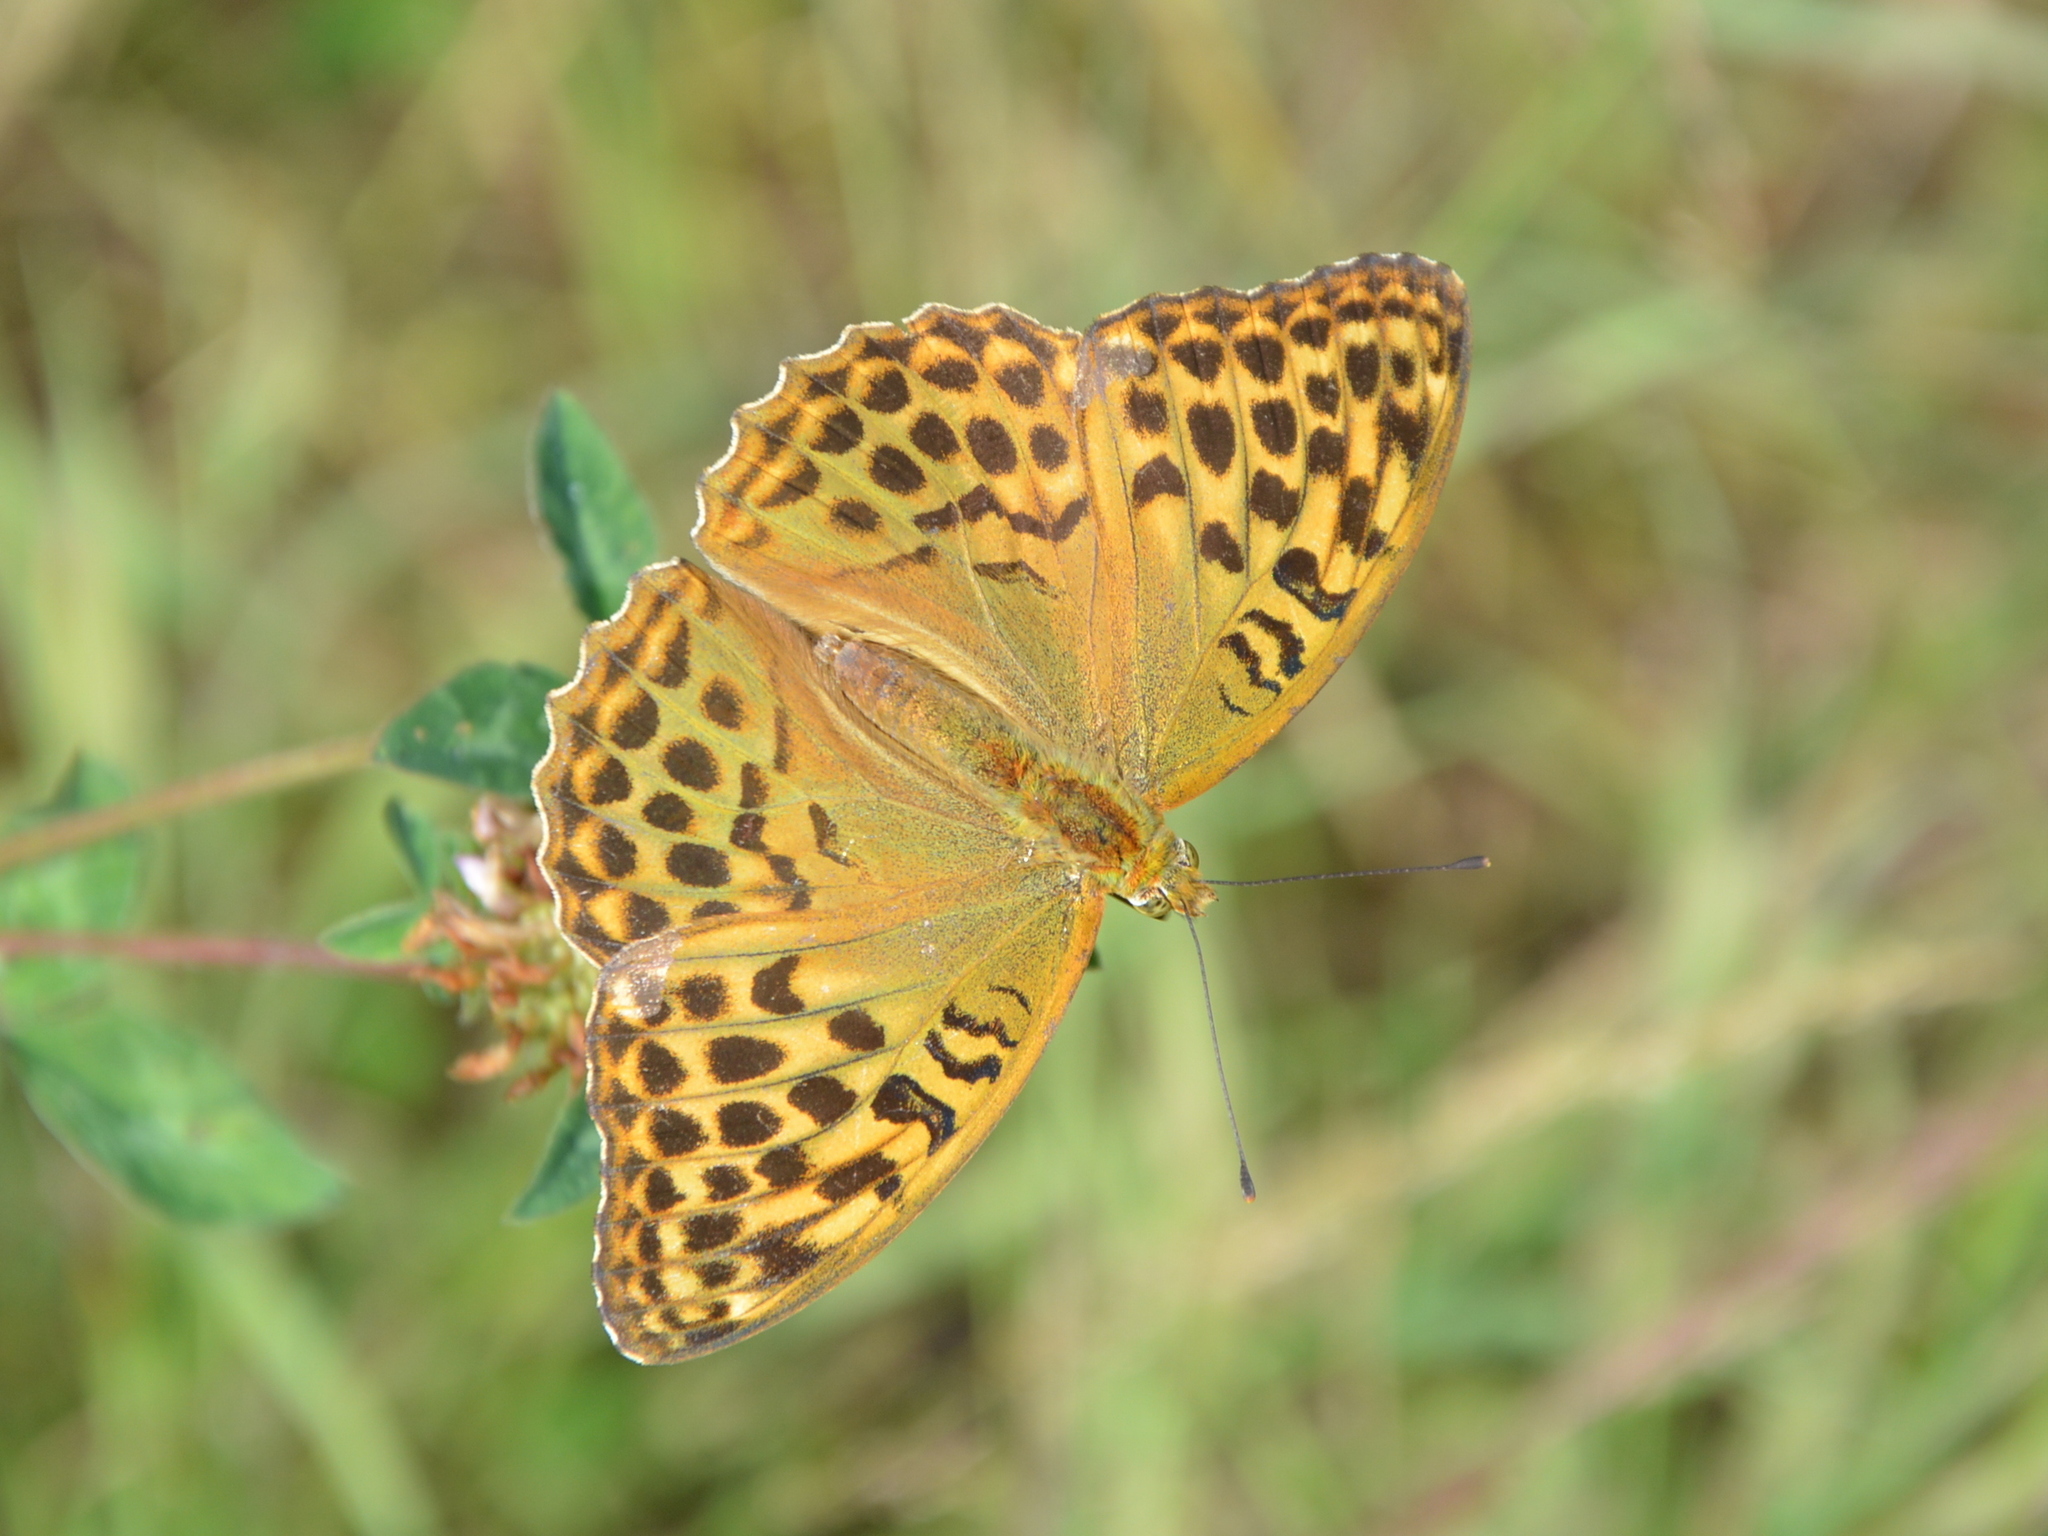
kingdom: Animalia
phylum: Arthropoda
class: Insecta
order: Lepidoptera
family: Nymphalidae
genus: Argynnis
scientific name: Argynnis paphia
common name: Silver-washed fritillary
